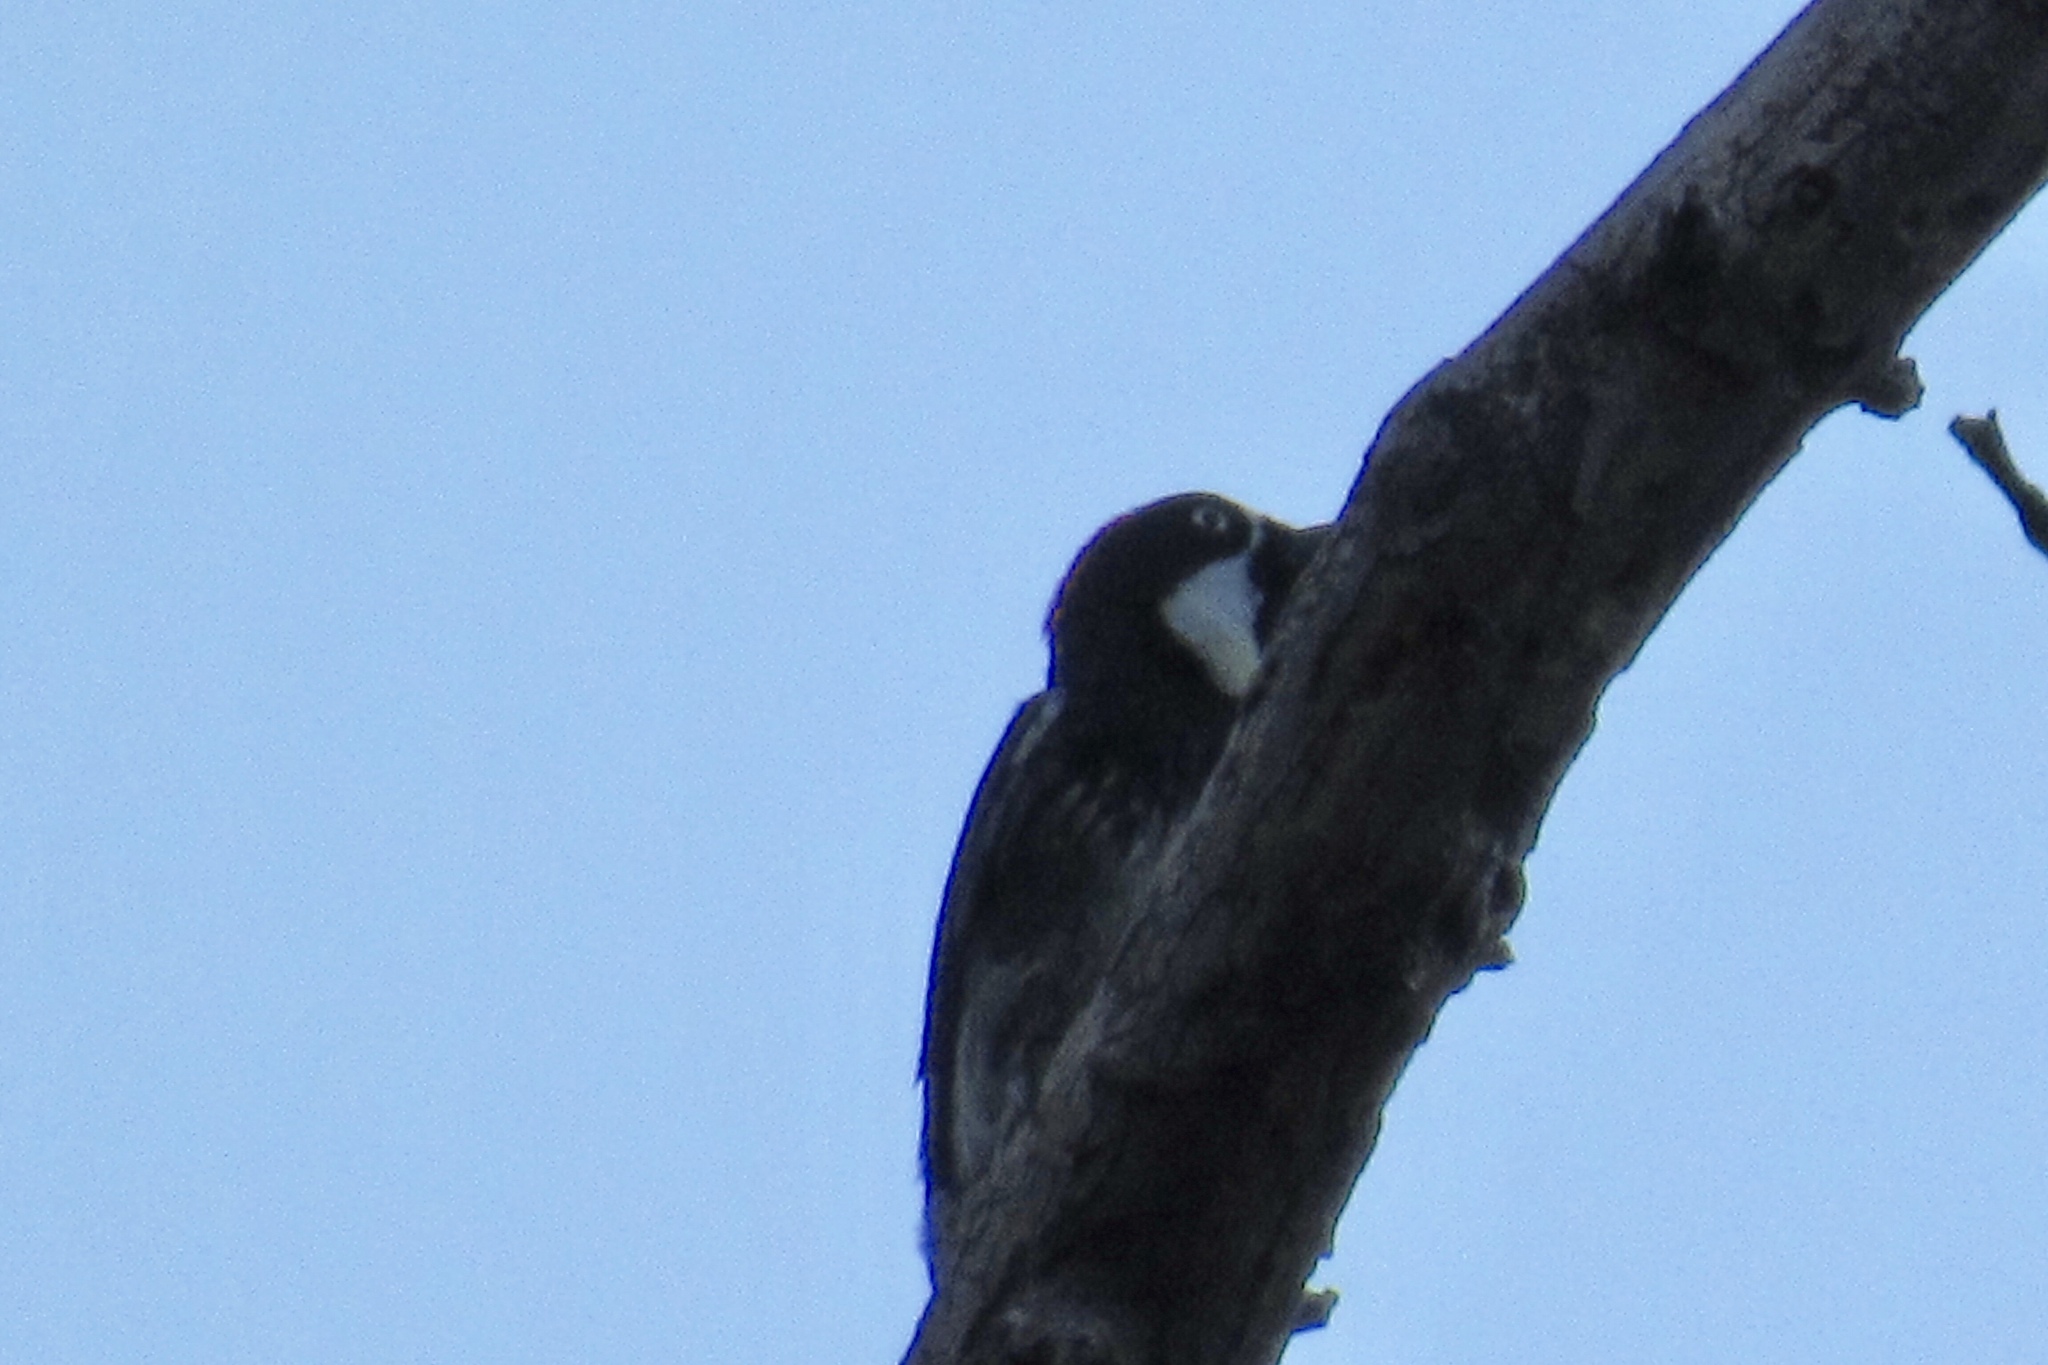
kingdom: Animalia
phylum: Chordata
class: Aves
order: Piciformes
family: Picidae
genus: Melanerpes
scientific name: Melanerpes formicivorus
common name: Acorn woodpecker
